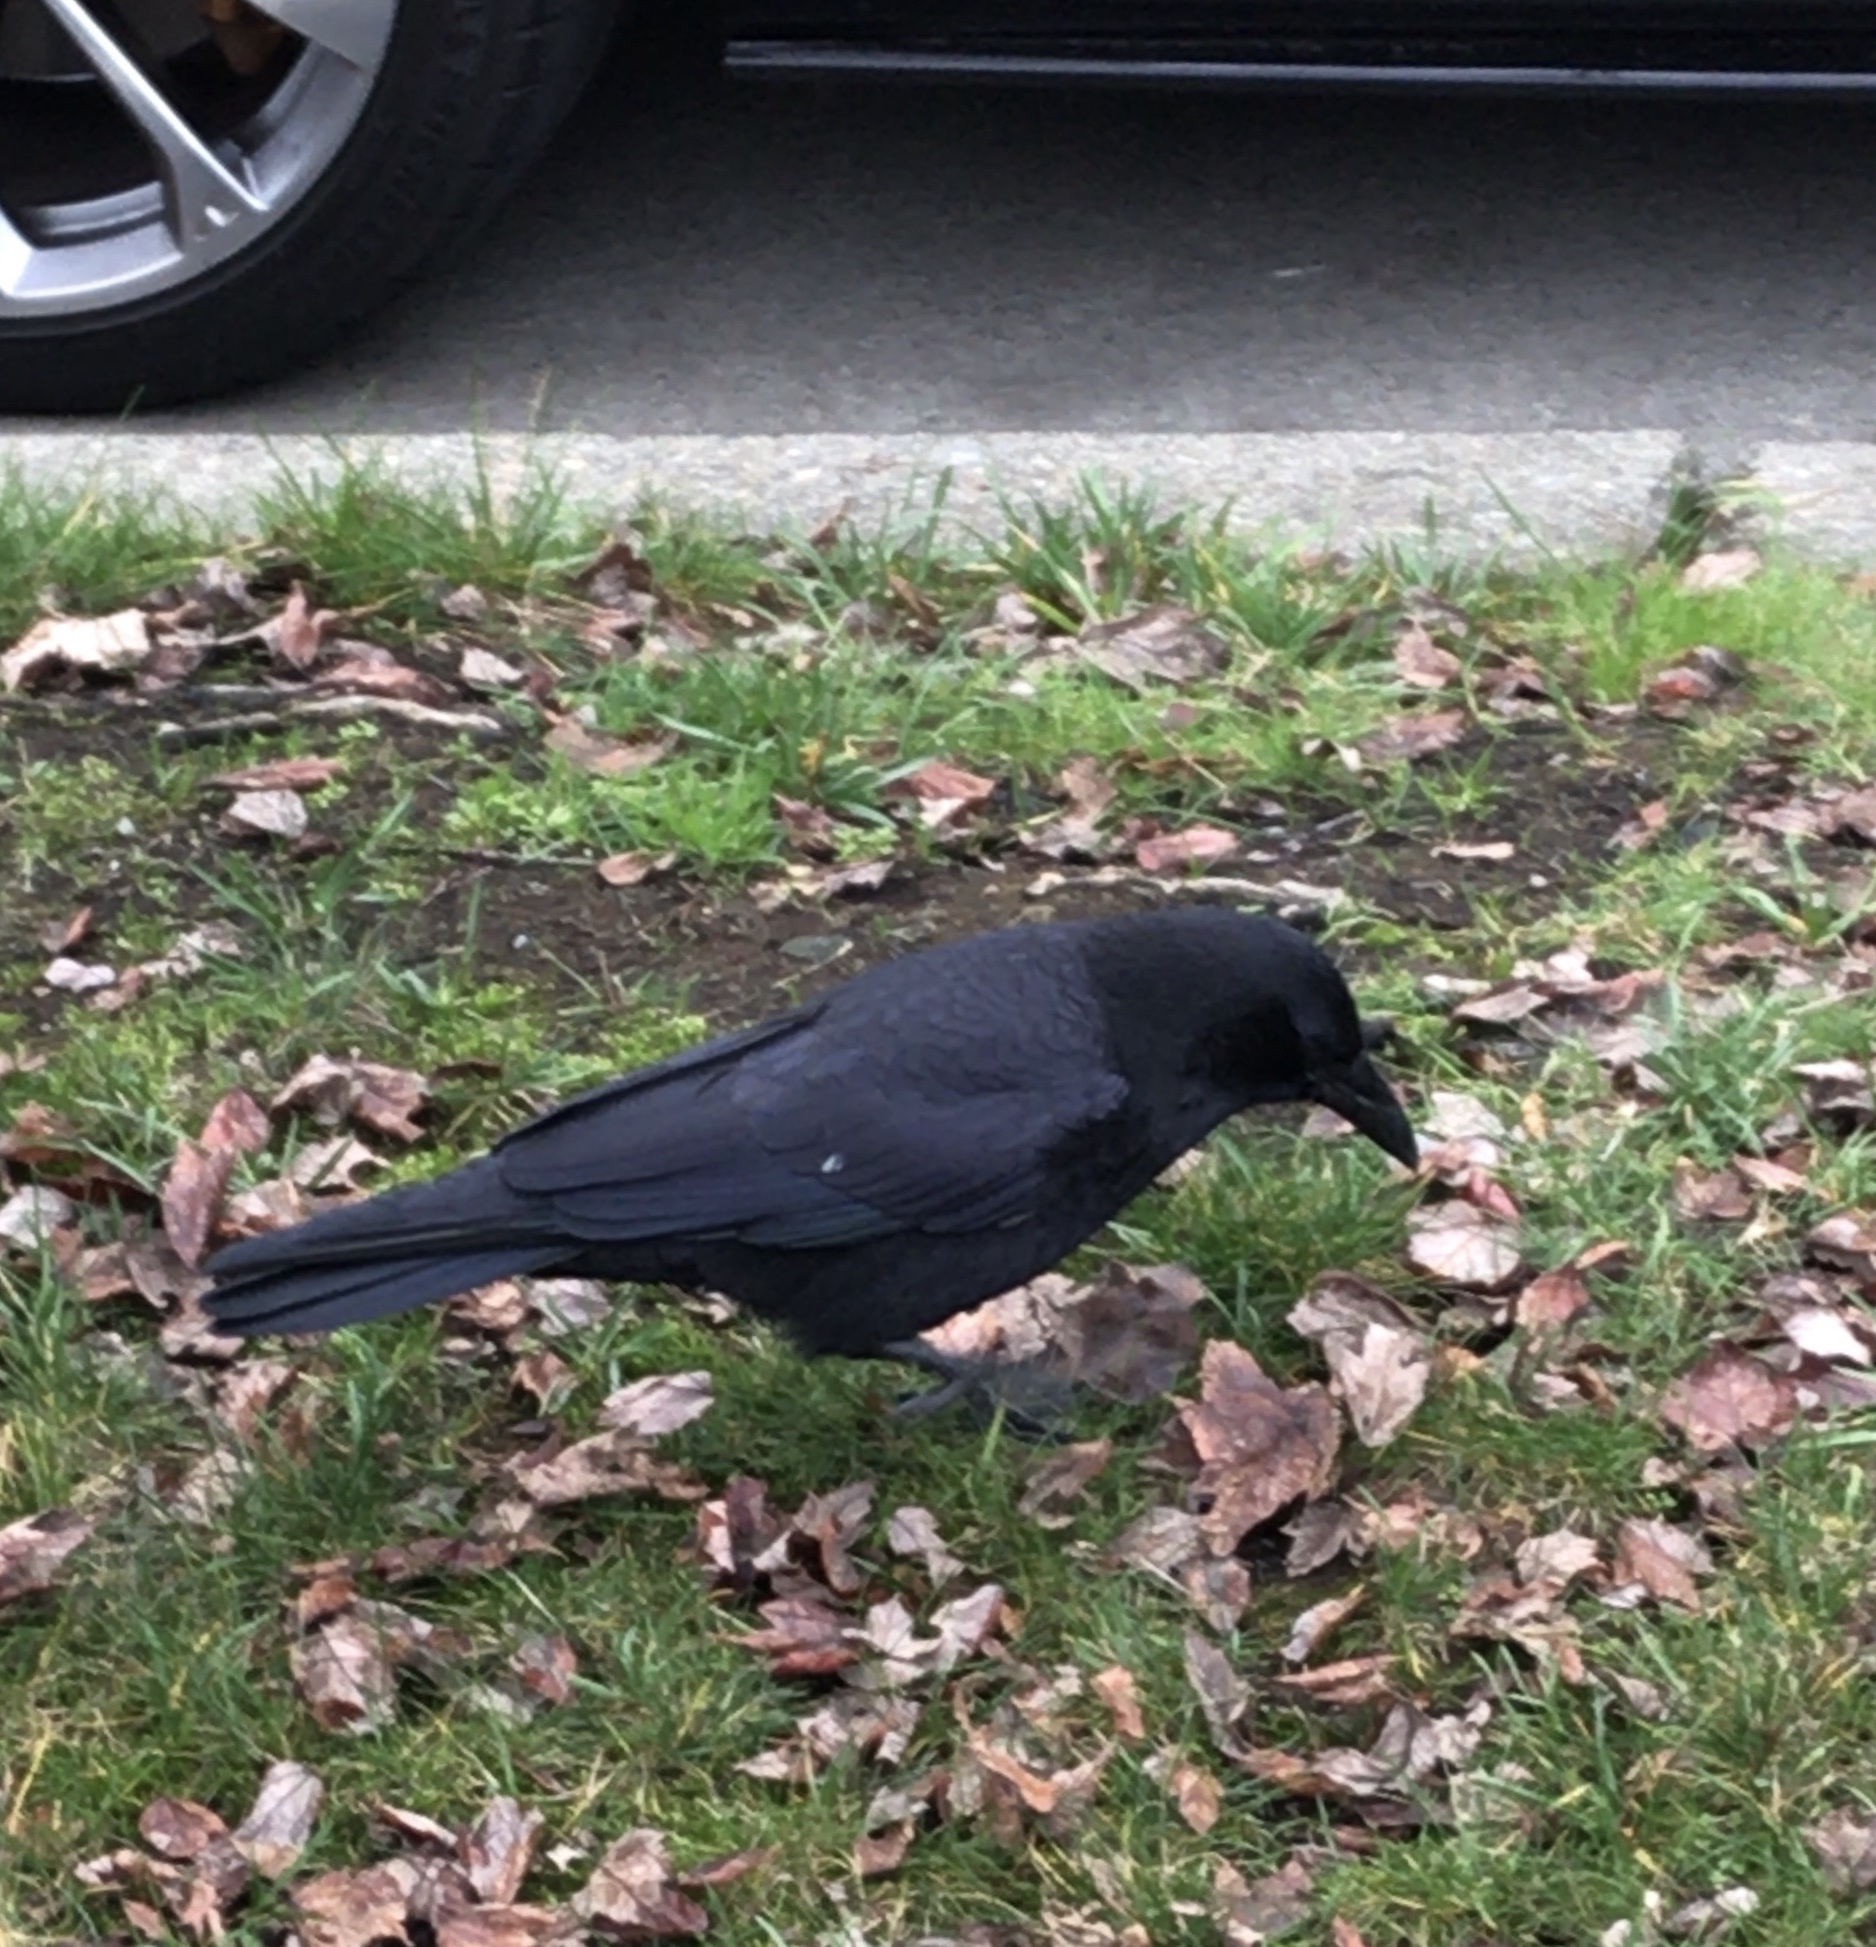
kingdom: Animalia
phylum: Chordata
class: Aves
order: Passeriformes
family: Corvidae
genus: Corvus
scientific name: Corvus brachyrhynchos
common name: American crow
